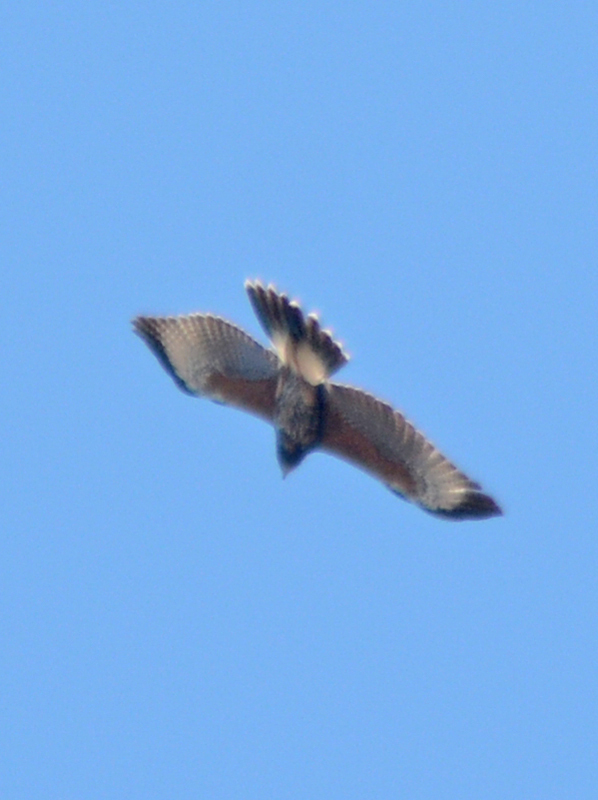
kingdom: Animalia
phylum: Chordata
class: Aves
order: Accipitriformes
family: Accipitridae
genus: Parabuteo
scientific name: Parabuteo unicinctus
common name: Harris's hawk
